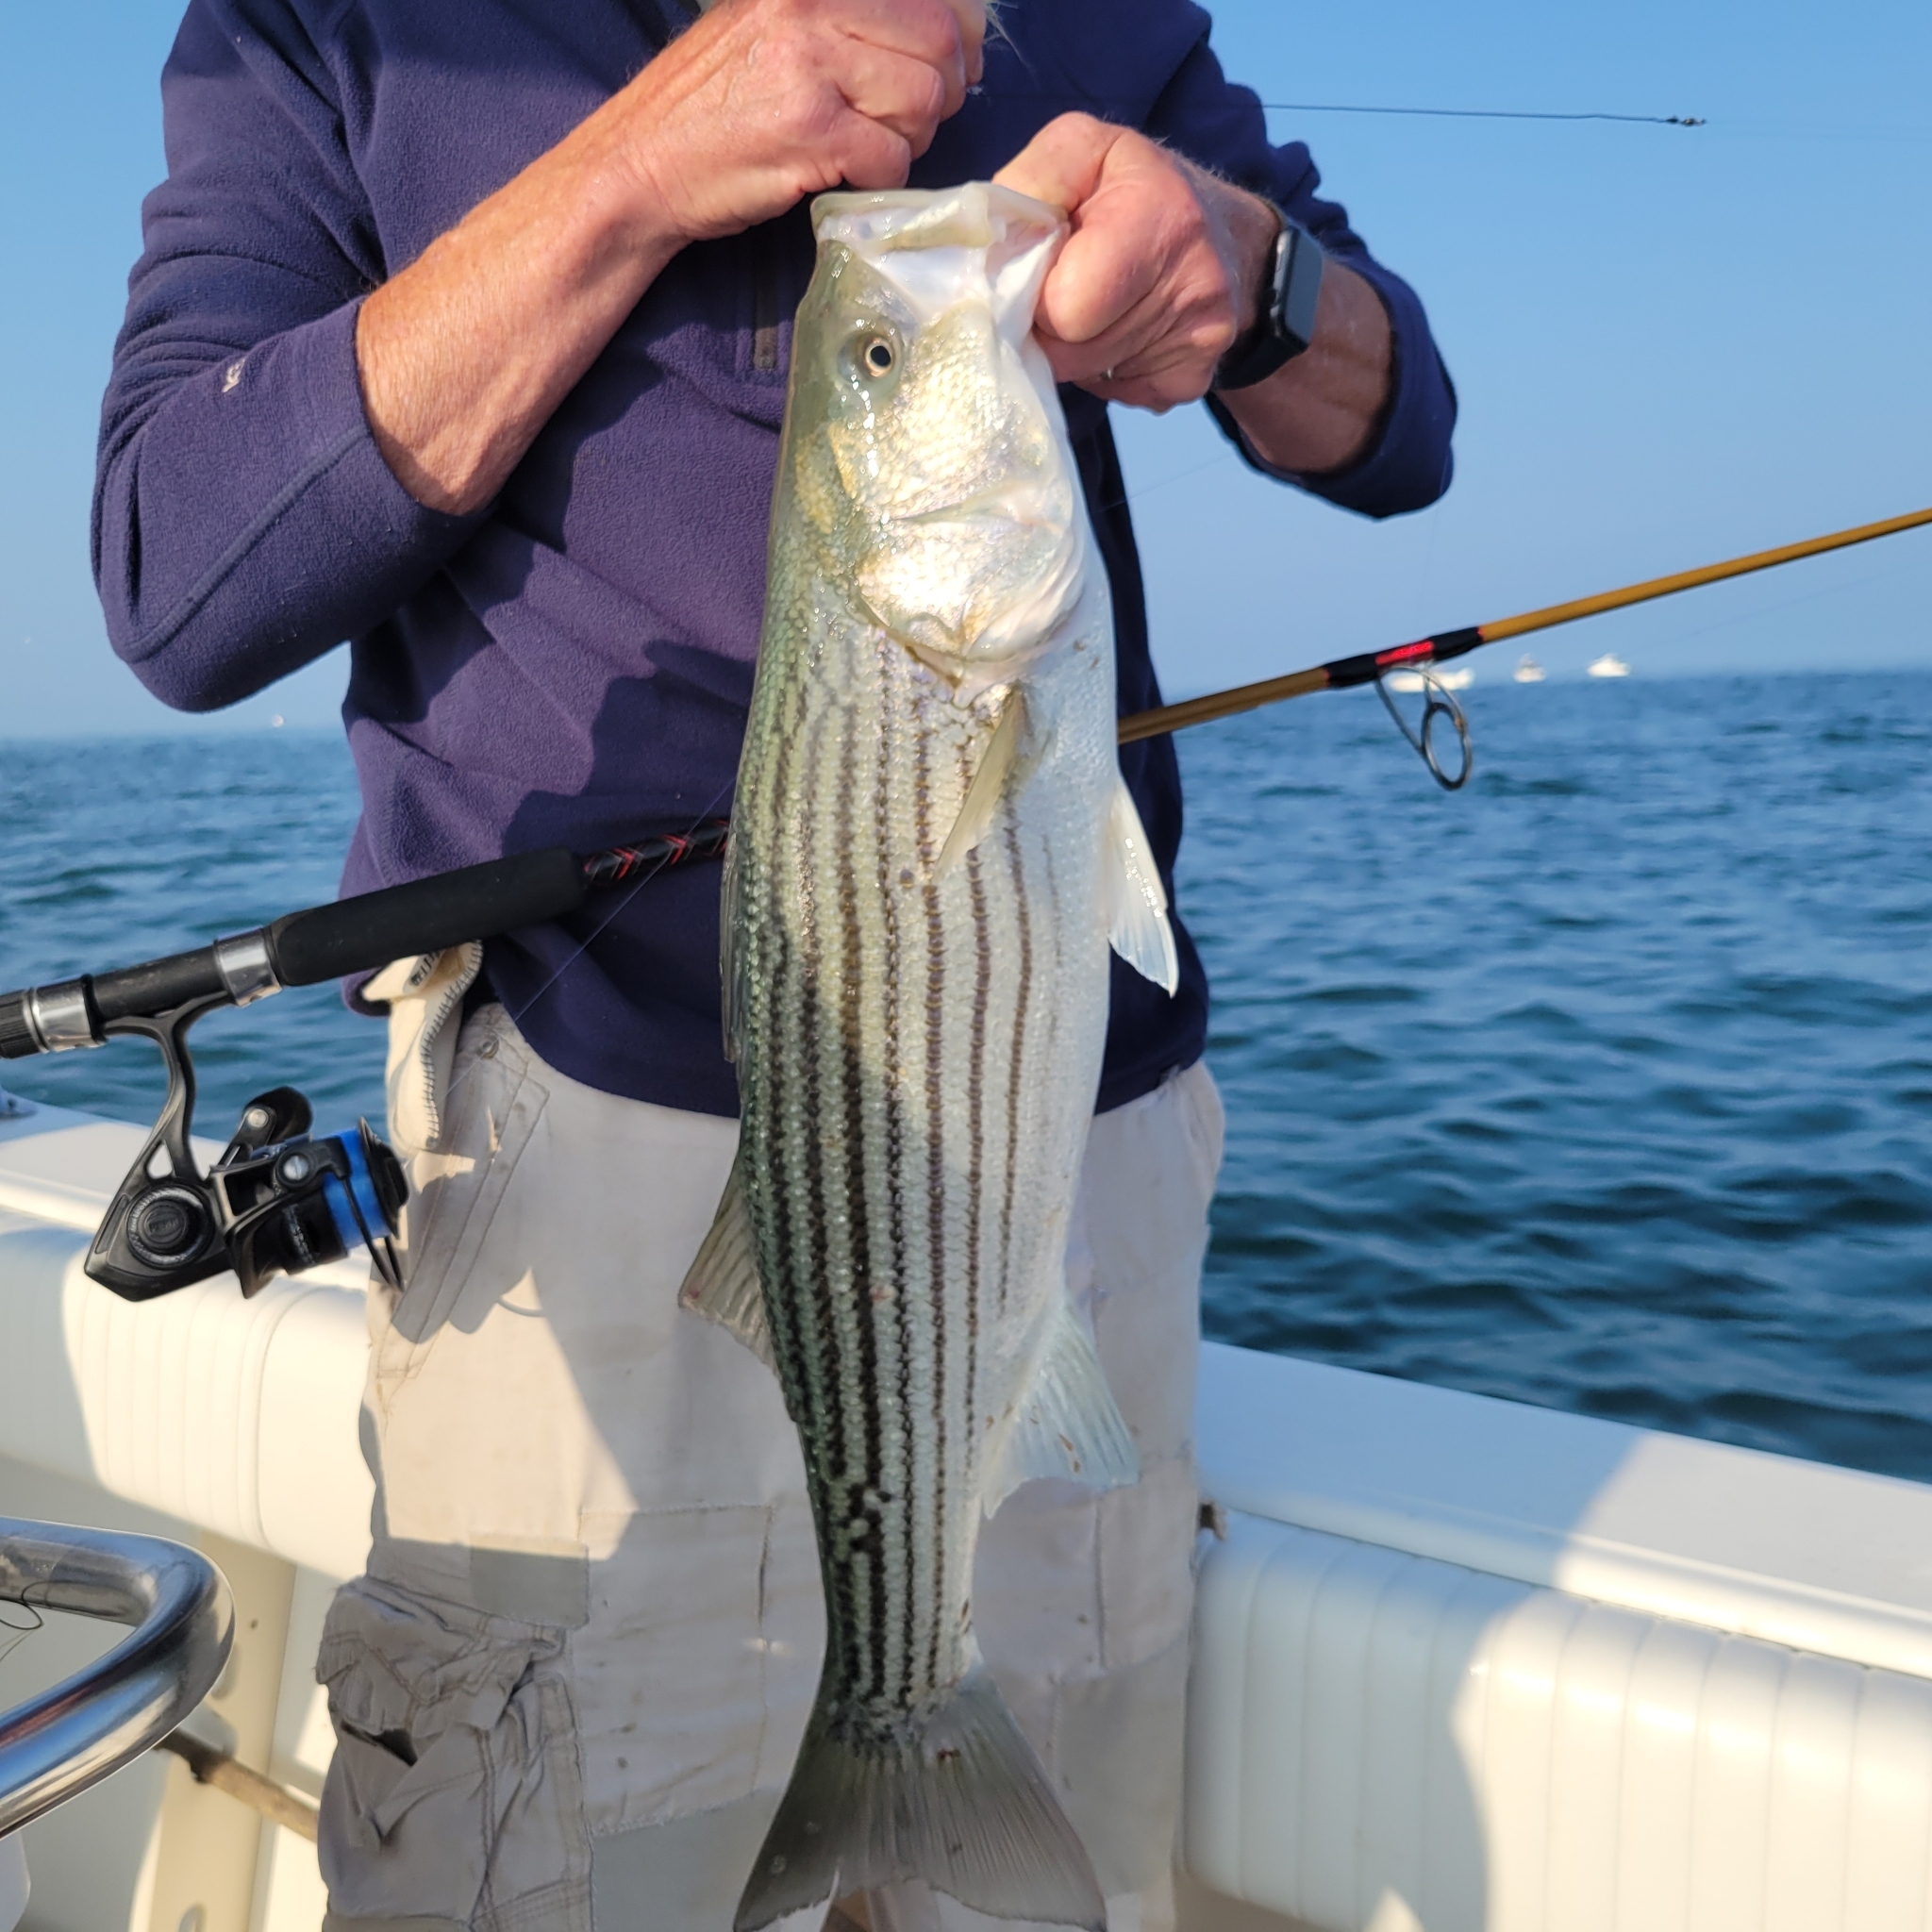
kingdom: Animalia
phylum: Chordata
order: Perciformes
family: Moronidae
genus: Morone
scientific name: Morone saxatilis
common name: Striped bass
